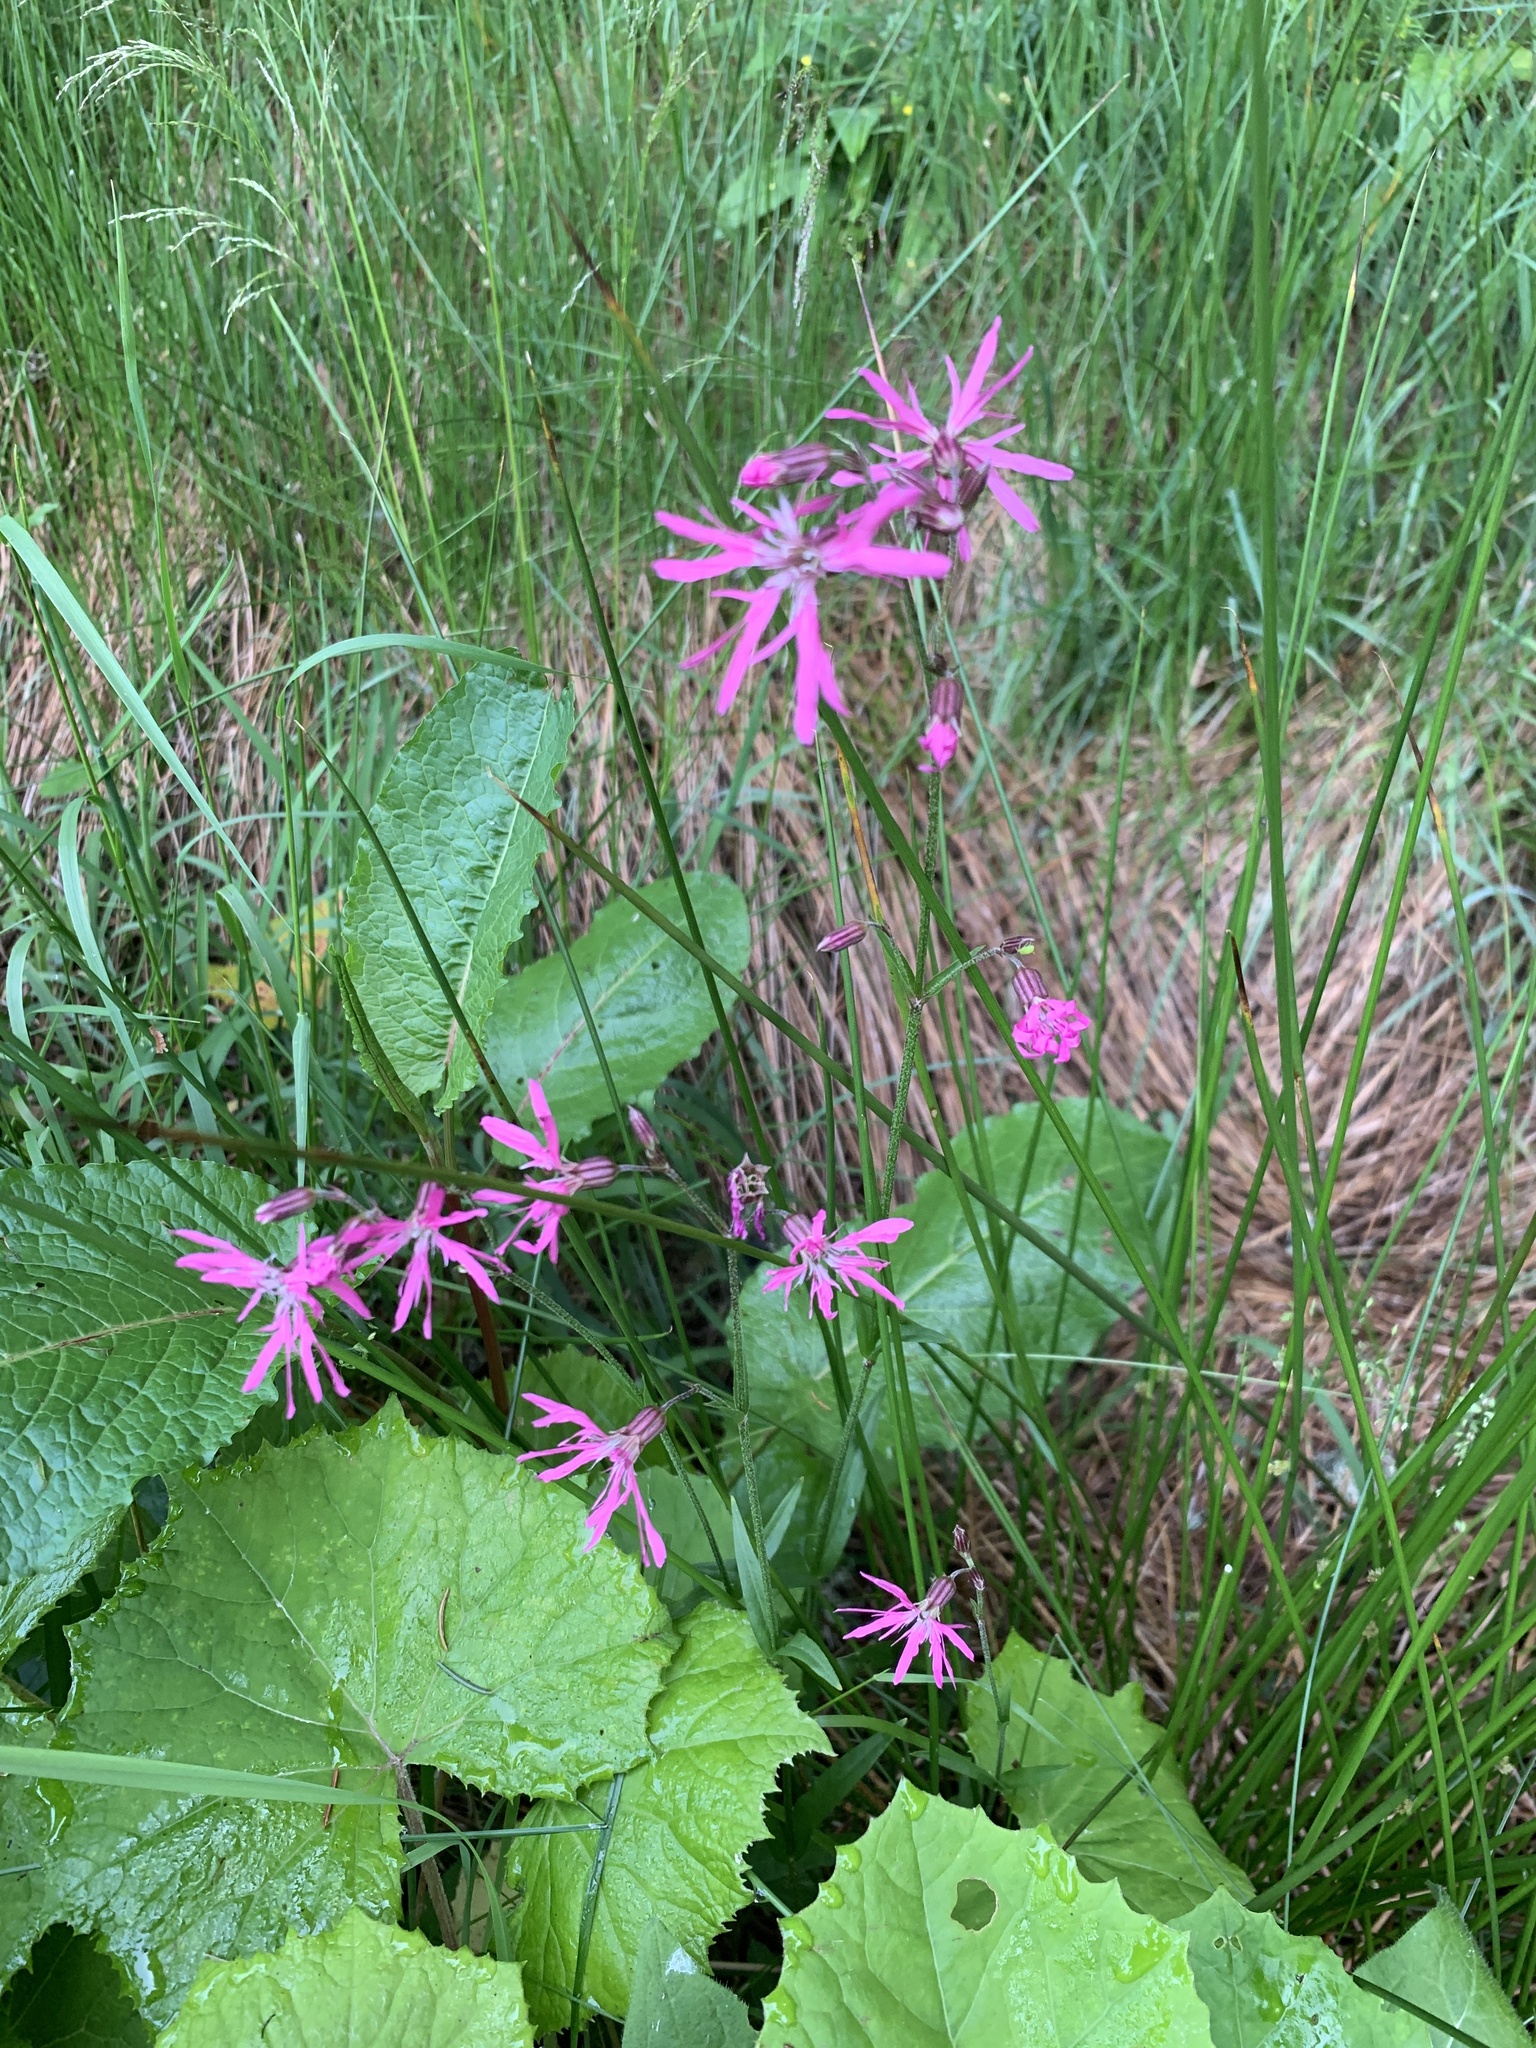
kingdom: Plantae
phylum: Tracheophyta
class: Magnoliopsida
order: Caryophyllales
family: Caryophyllaceae
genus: Silene
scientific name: Silene flos-cuculi
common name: Ragged-robin
